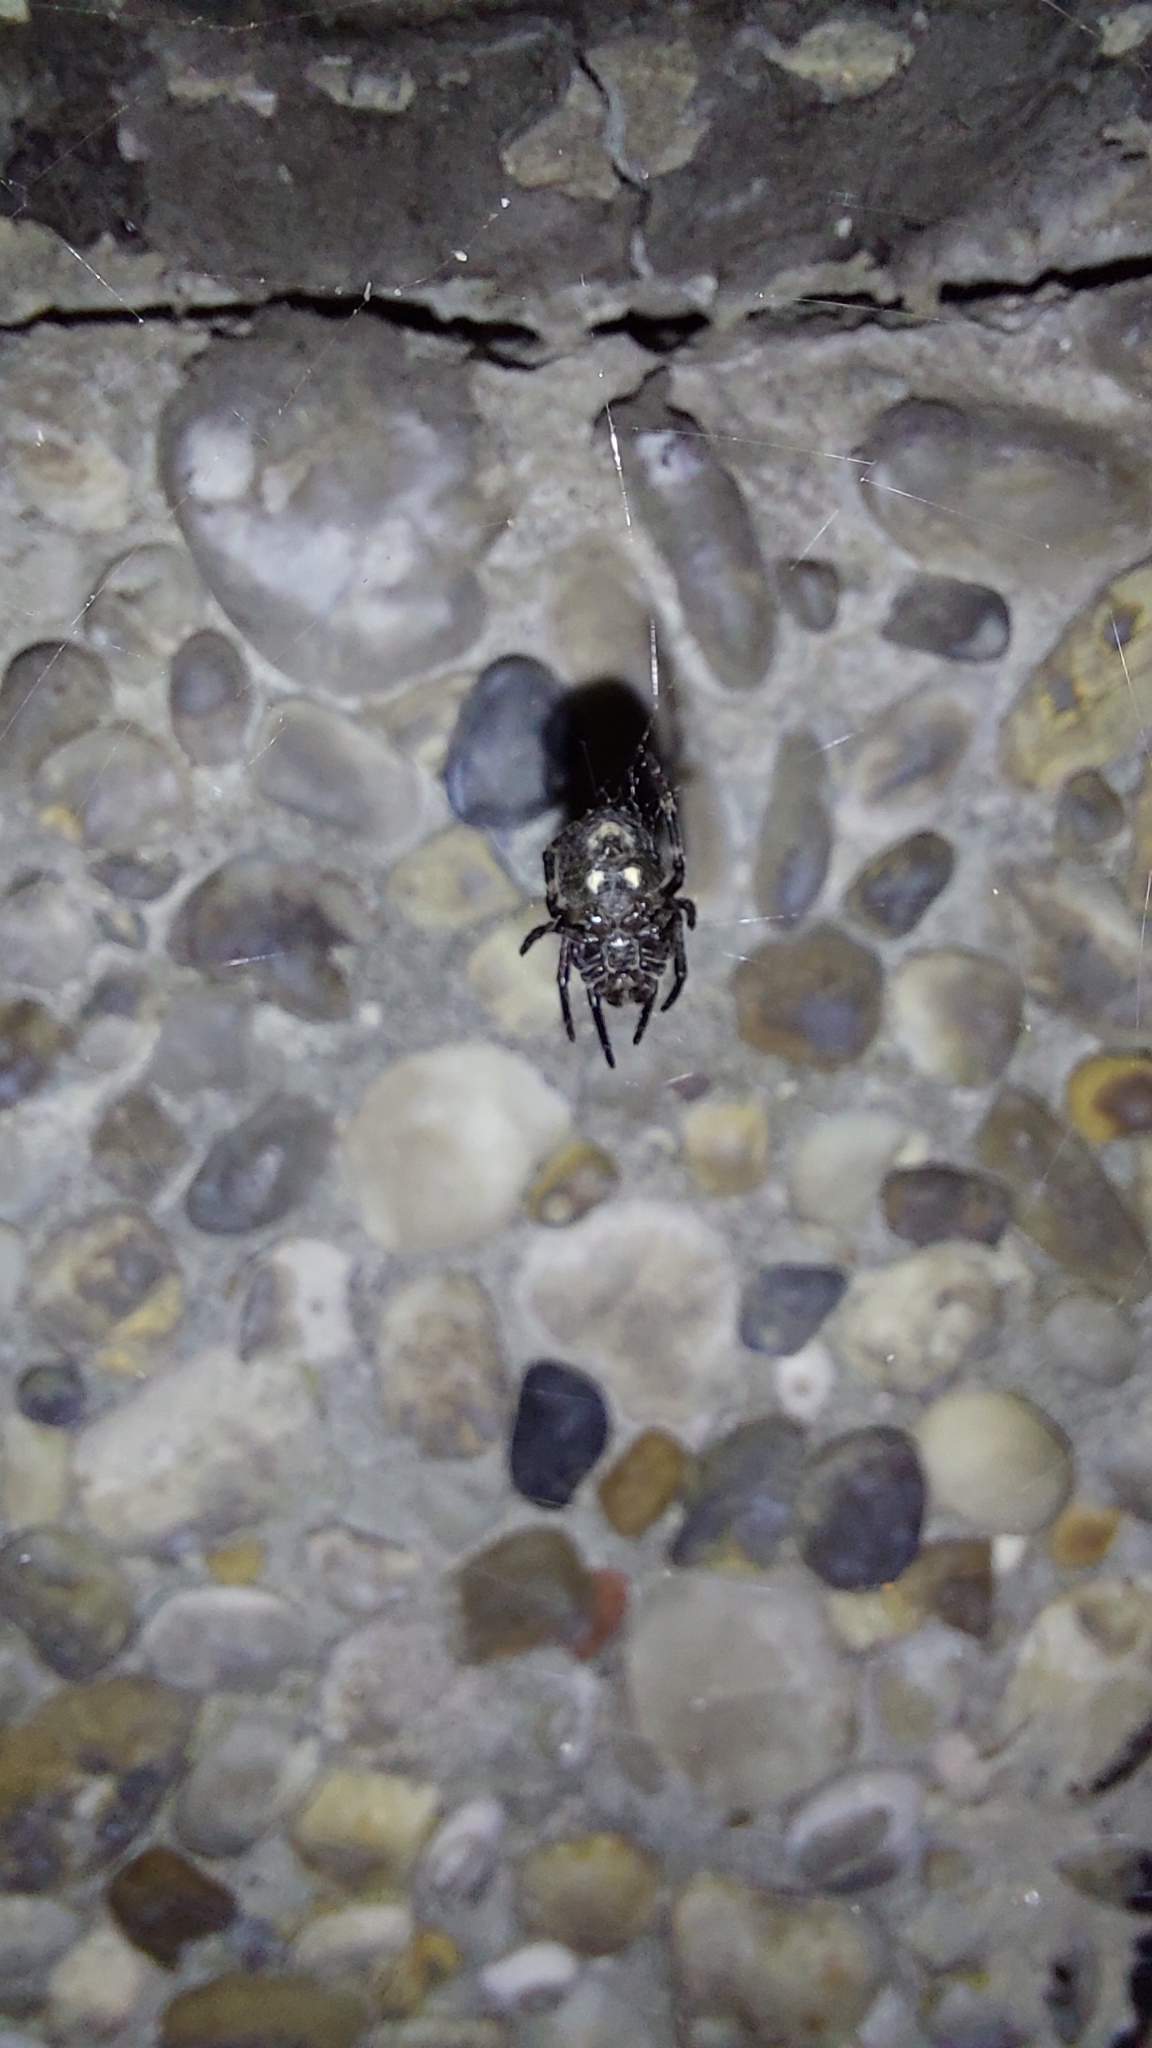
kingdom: Animalia
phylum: Arthropoda
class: Arachnida
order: Araneae
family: Araneidae
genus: Nuctenea
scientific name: Nuctenea umbratica
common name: Toad spider
